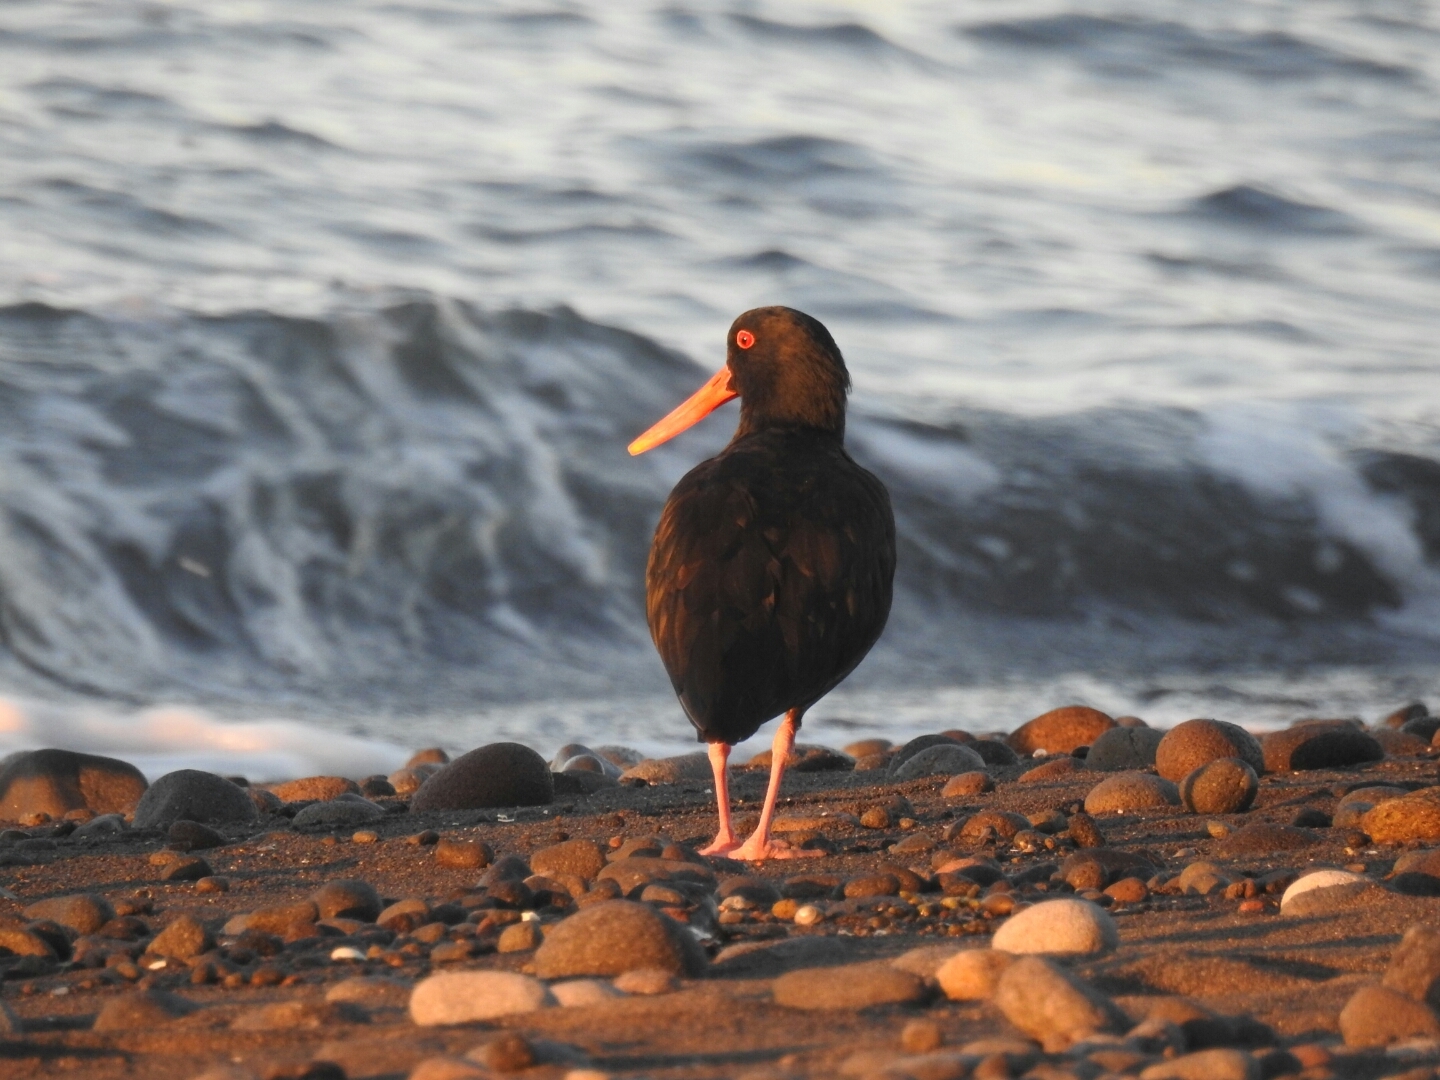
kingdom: Animalia
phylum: Chordata
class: Aves
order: Charadriiformes
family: Haematopodidae
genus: Haematopus
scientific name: Haematopus unicolor
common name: Variable oystercatcher
